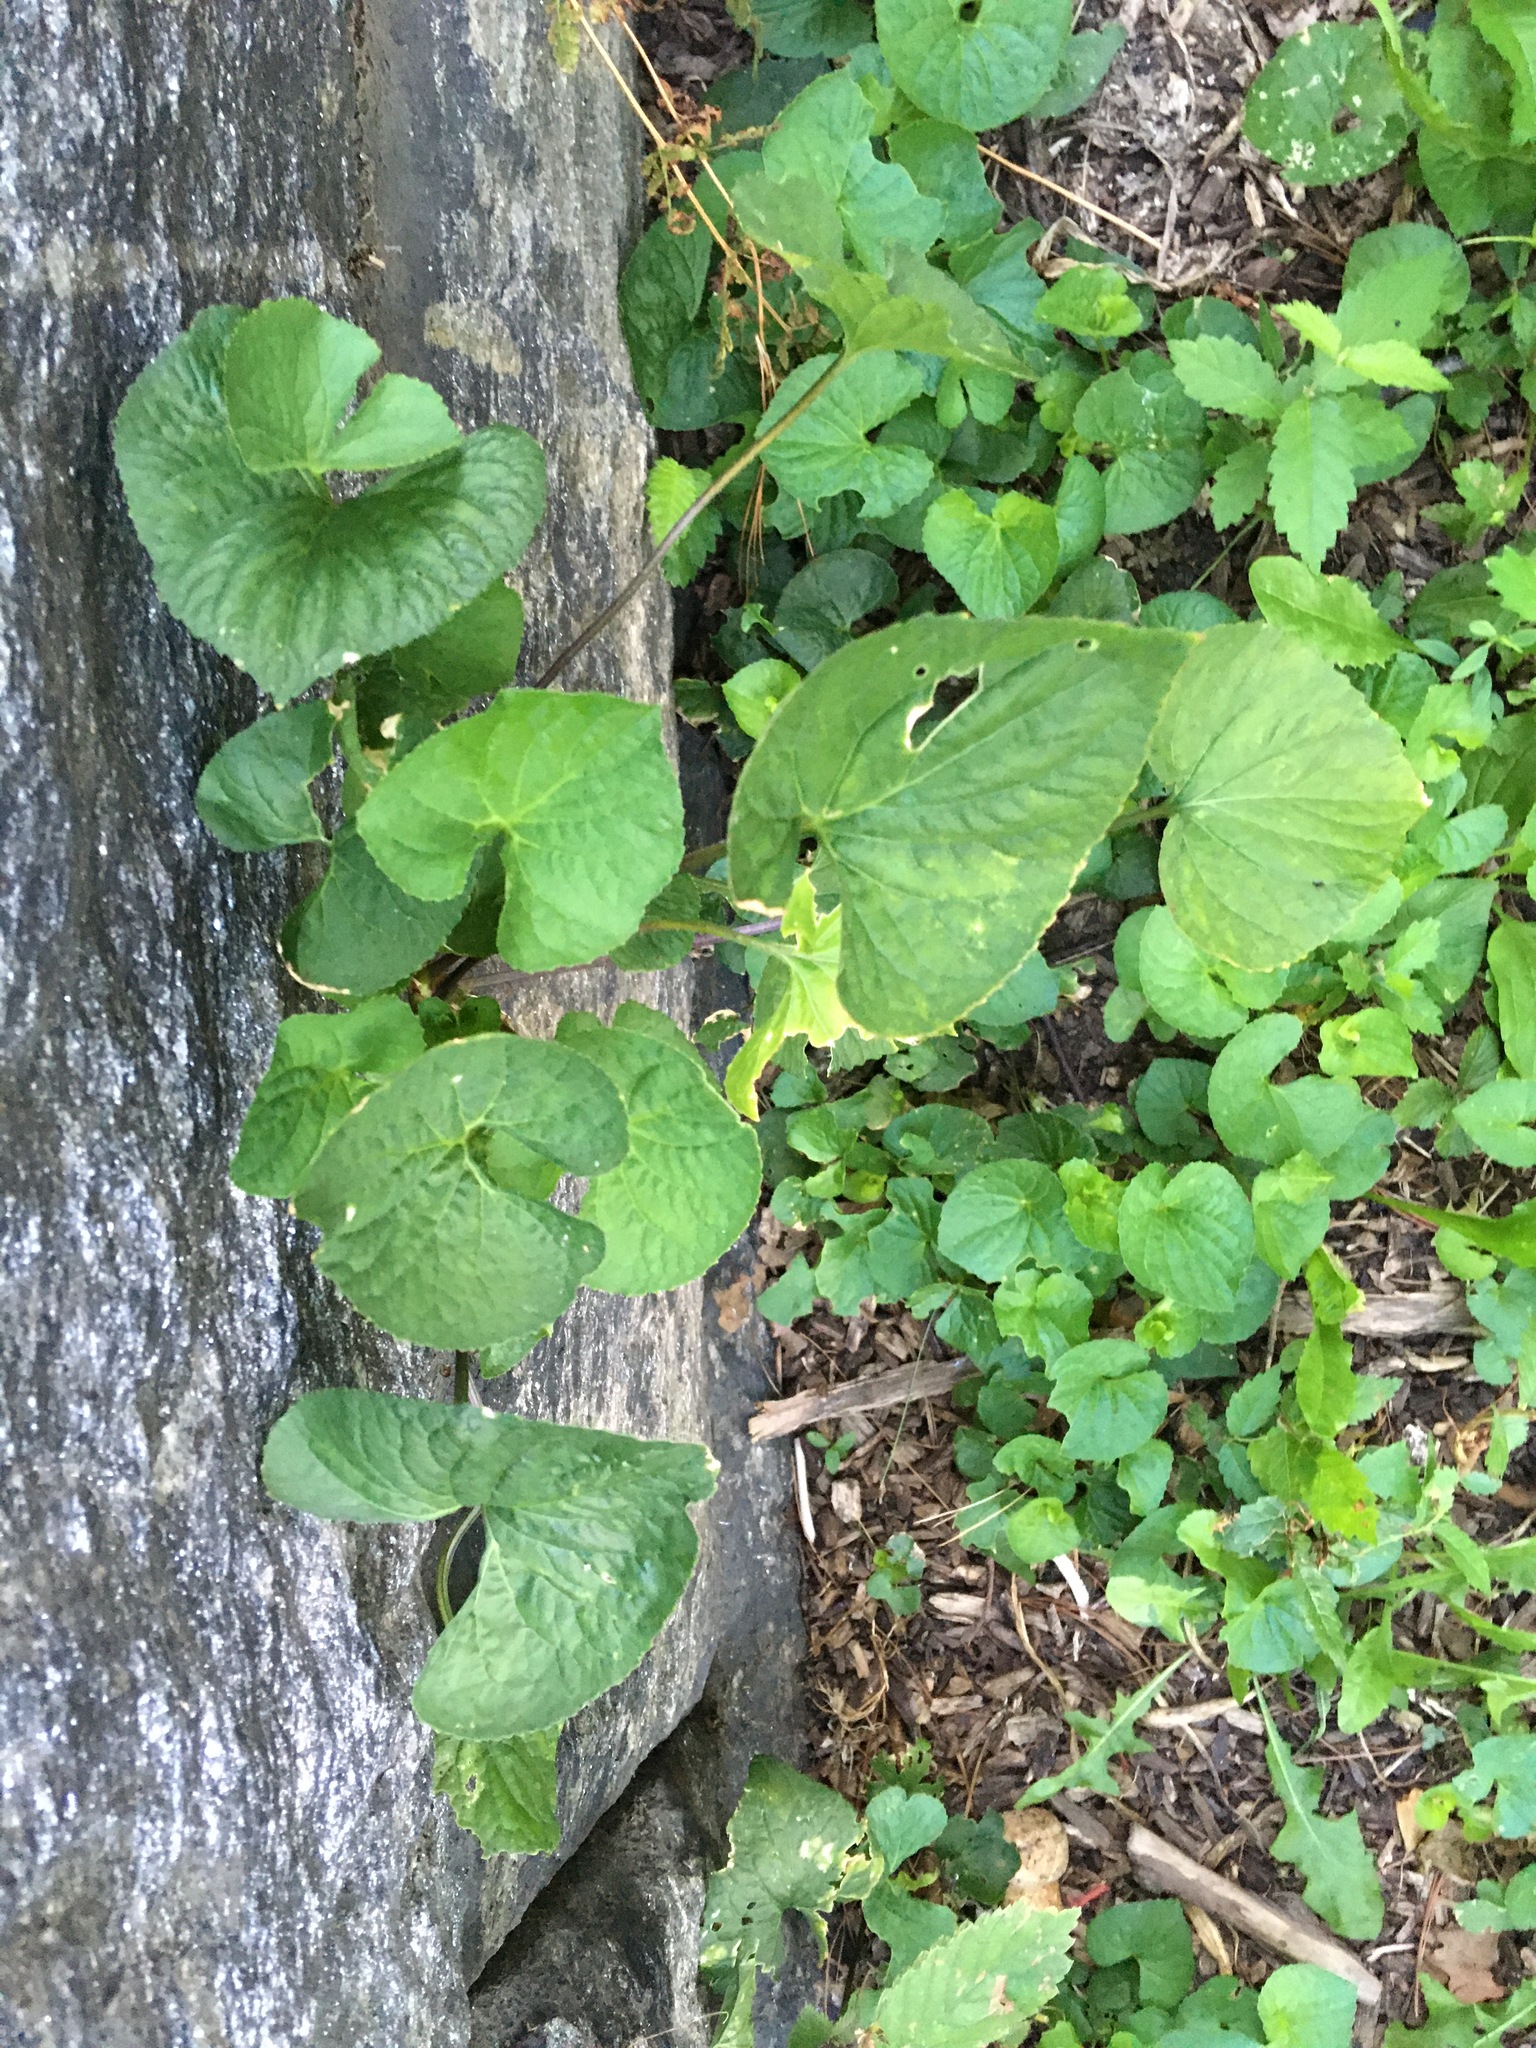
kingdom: Plantae
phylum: Tracheophyta
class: Magnoliopsida
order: Malpighiales
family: Violaceae
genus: Viola
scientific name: Viola sororia
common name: Dooryard violet
